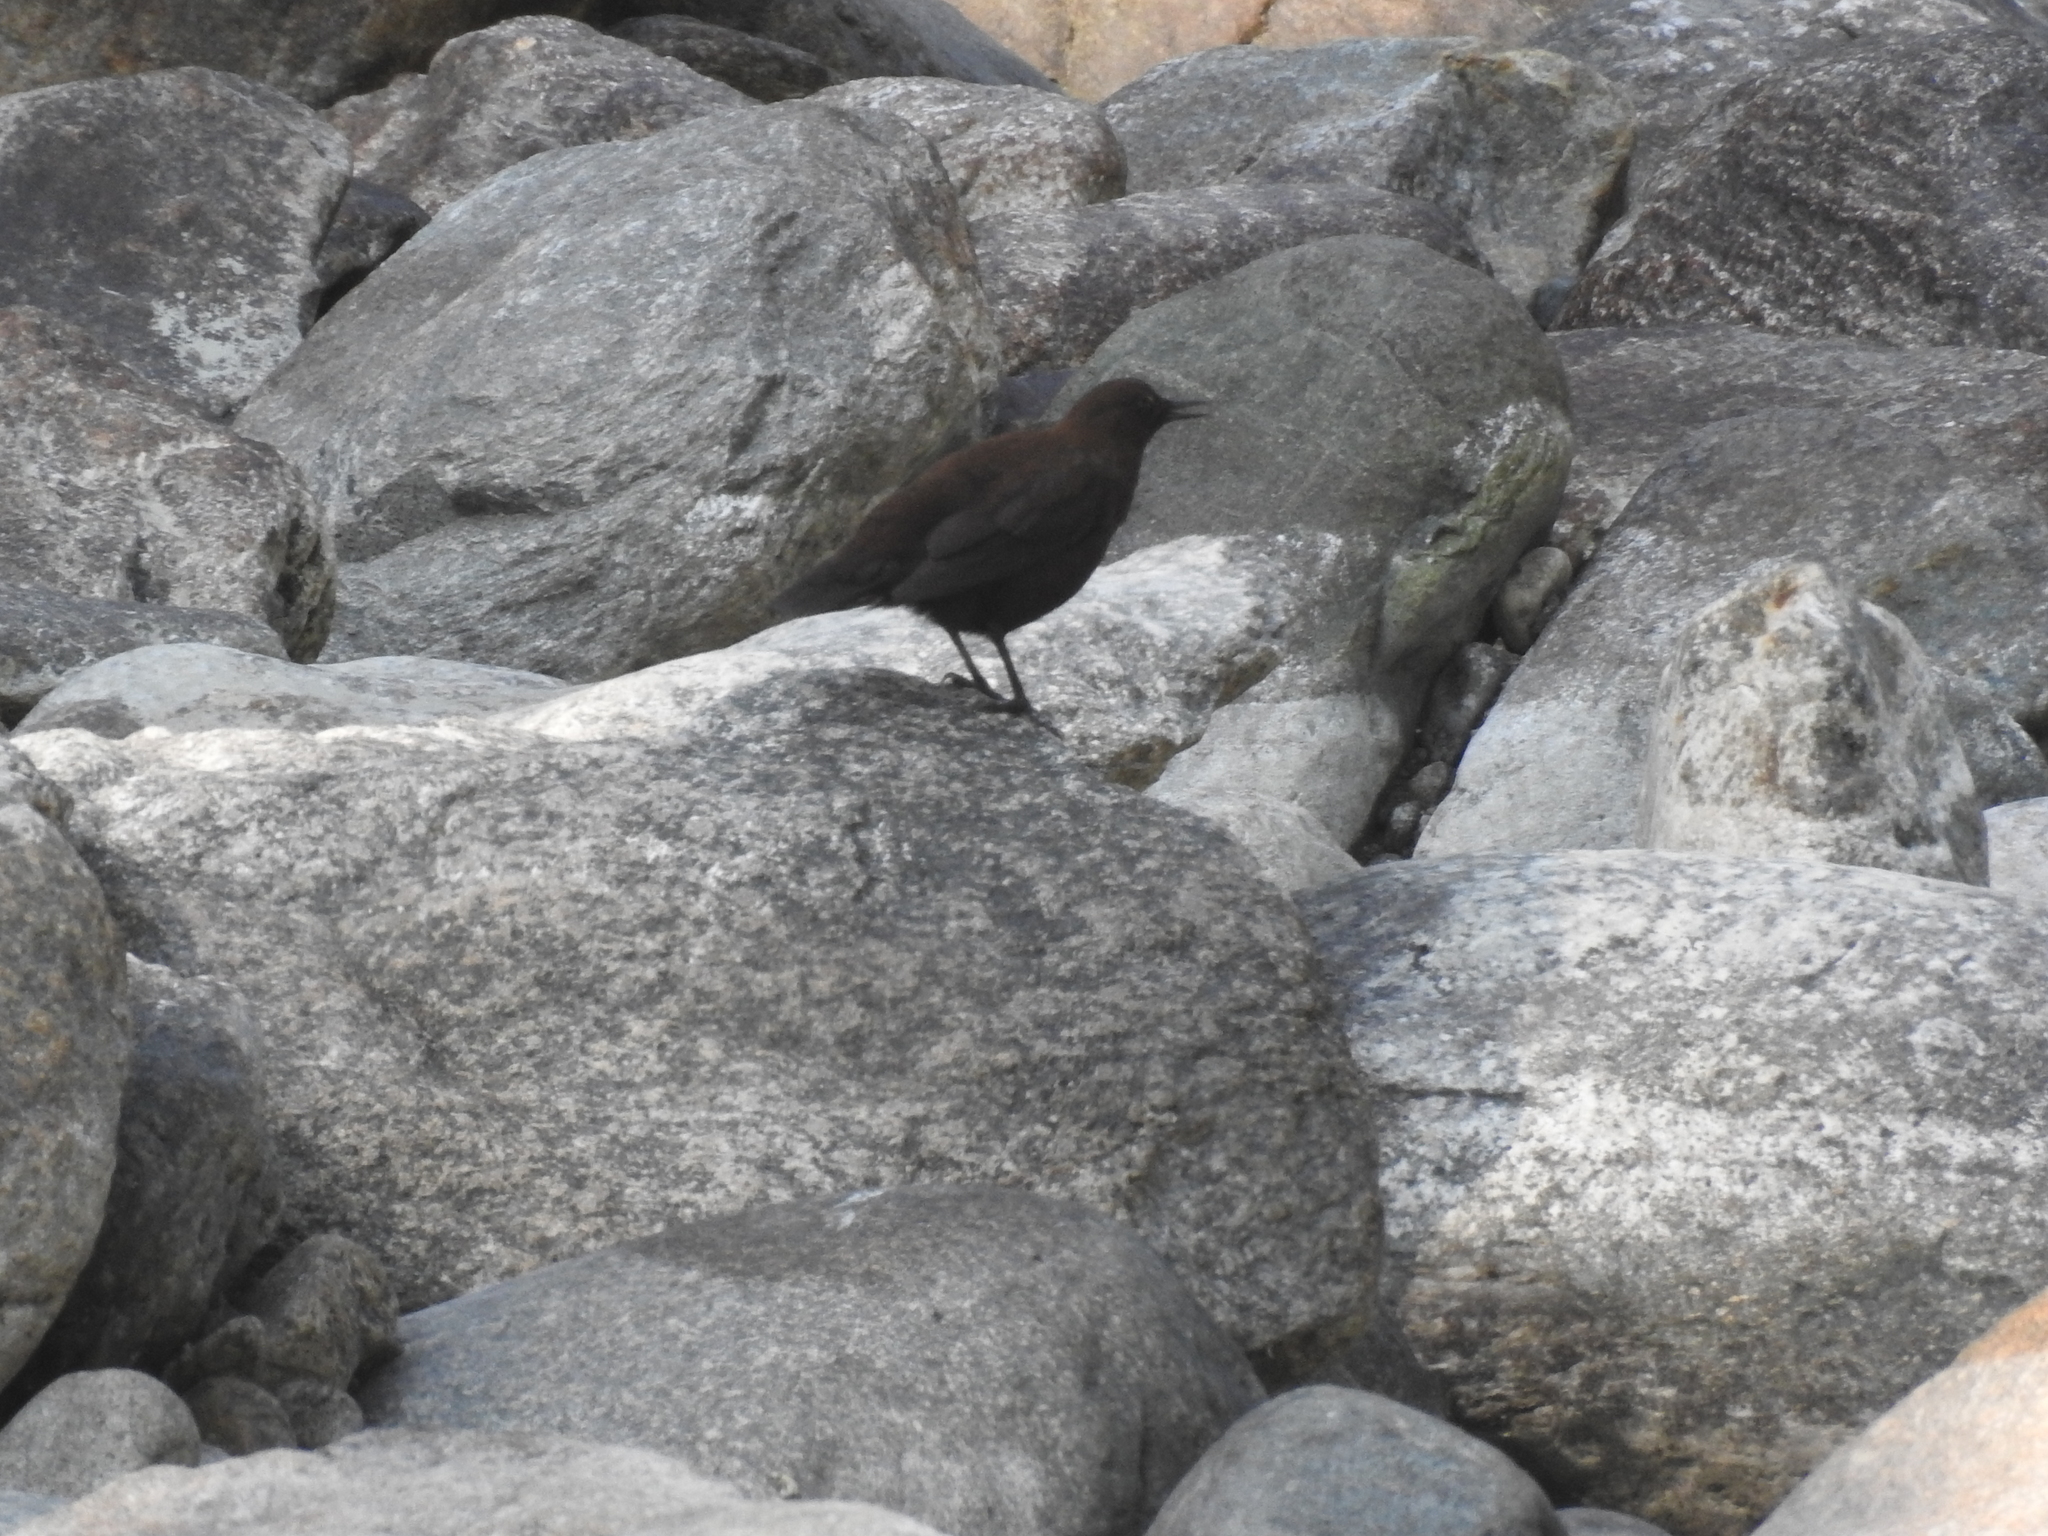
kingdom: Animalia
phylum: Chordata
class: Aves
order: Passeriformes
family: Cinclidae
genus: Cinclus
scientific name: Cinclus pallasii
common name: Brown dipper
